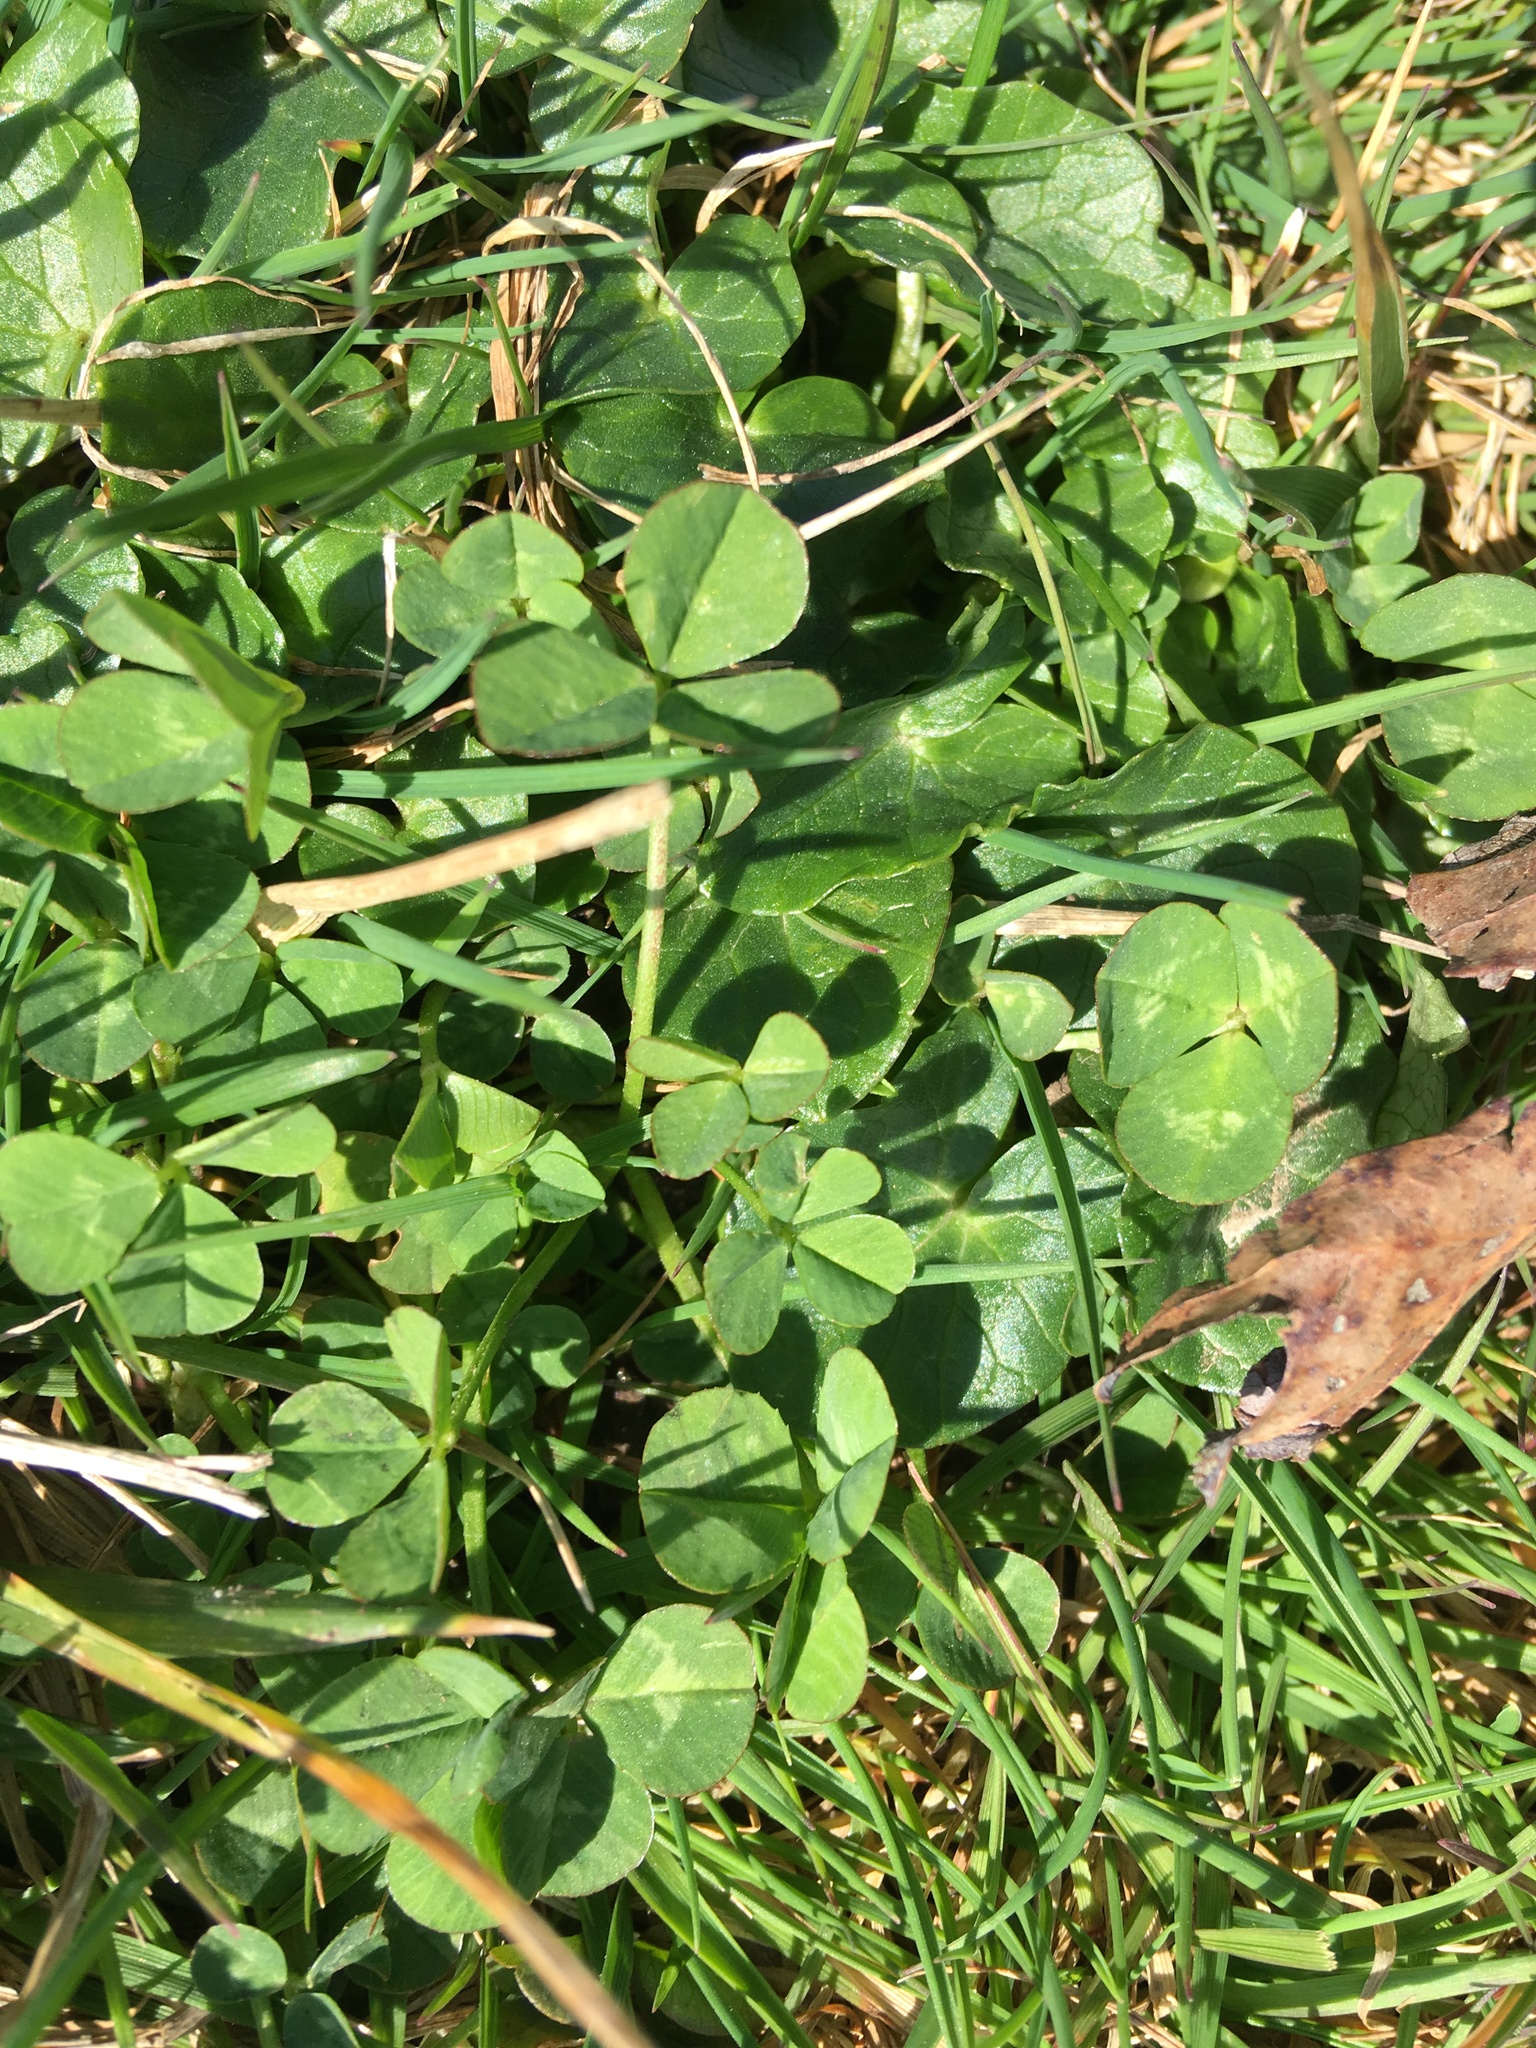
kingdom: Plantae
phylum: Tracheophyta
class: Magnoliopsida
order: Ranunculales
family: Ranunculaceae
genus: Ficaria
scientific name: Ficaria verna
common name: Lesser celandine
